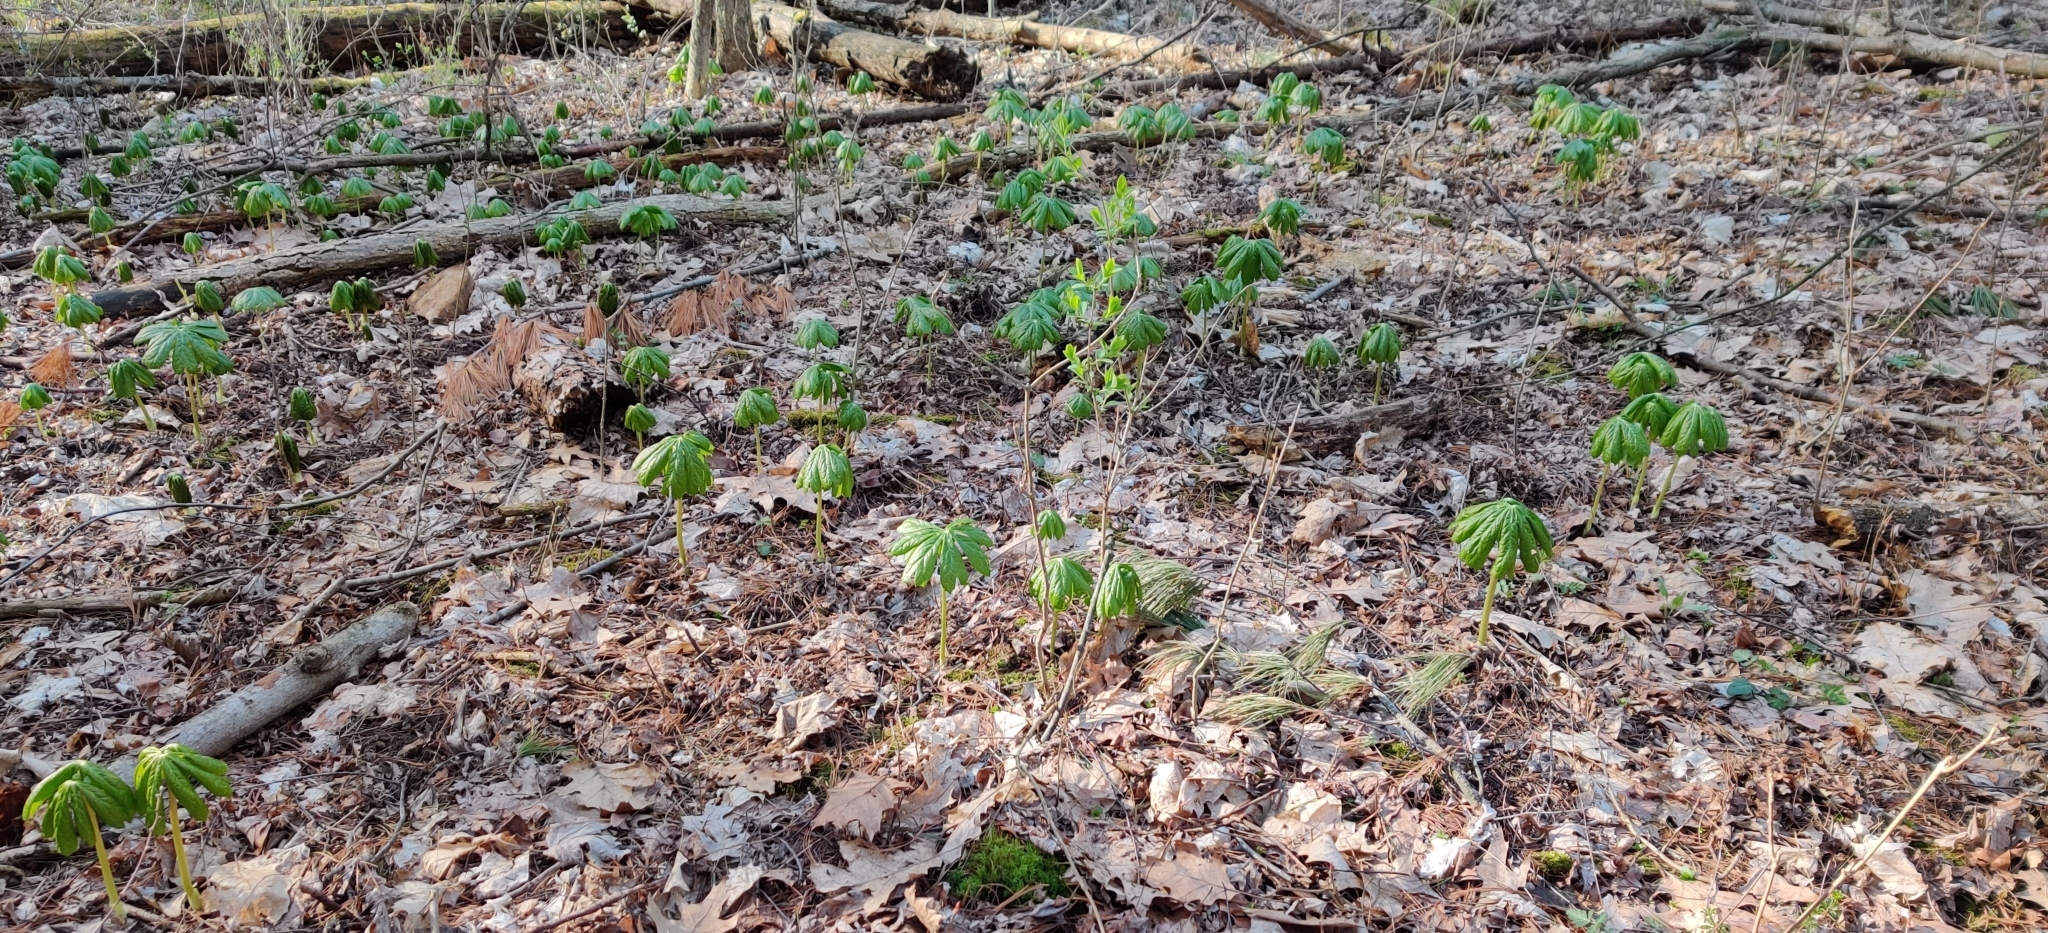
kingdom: Plantae
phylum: Tracheophyta
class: Magnoliopsida
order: Ranunculales
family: Berberidaceae
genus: Podophyllum
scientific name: Podophyllum peltatum
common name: Wild mandrake
